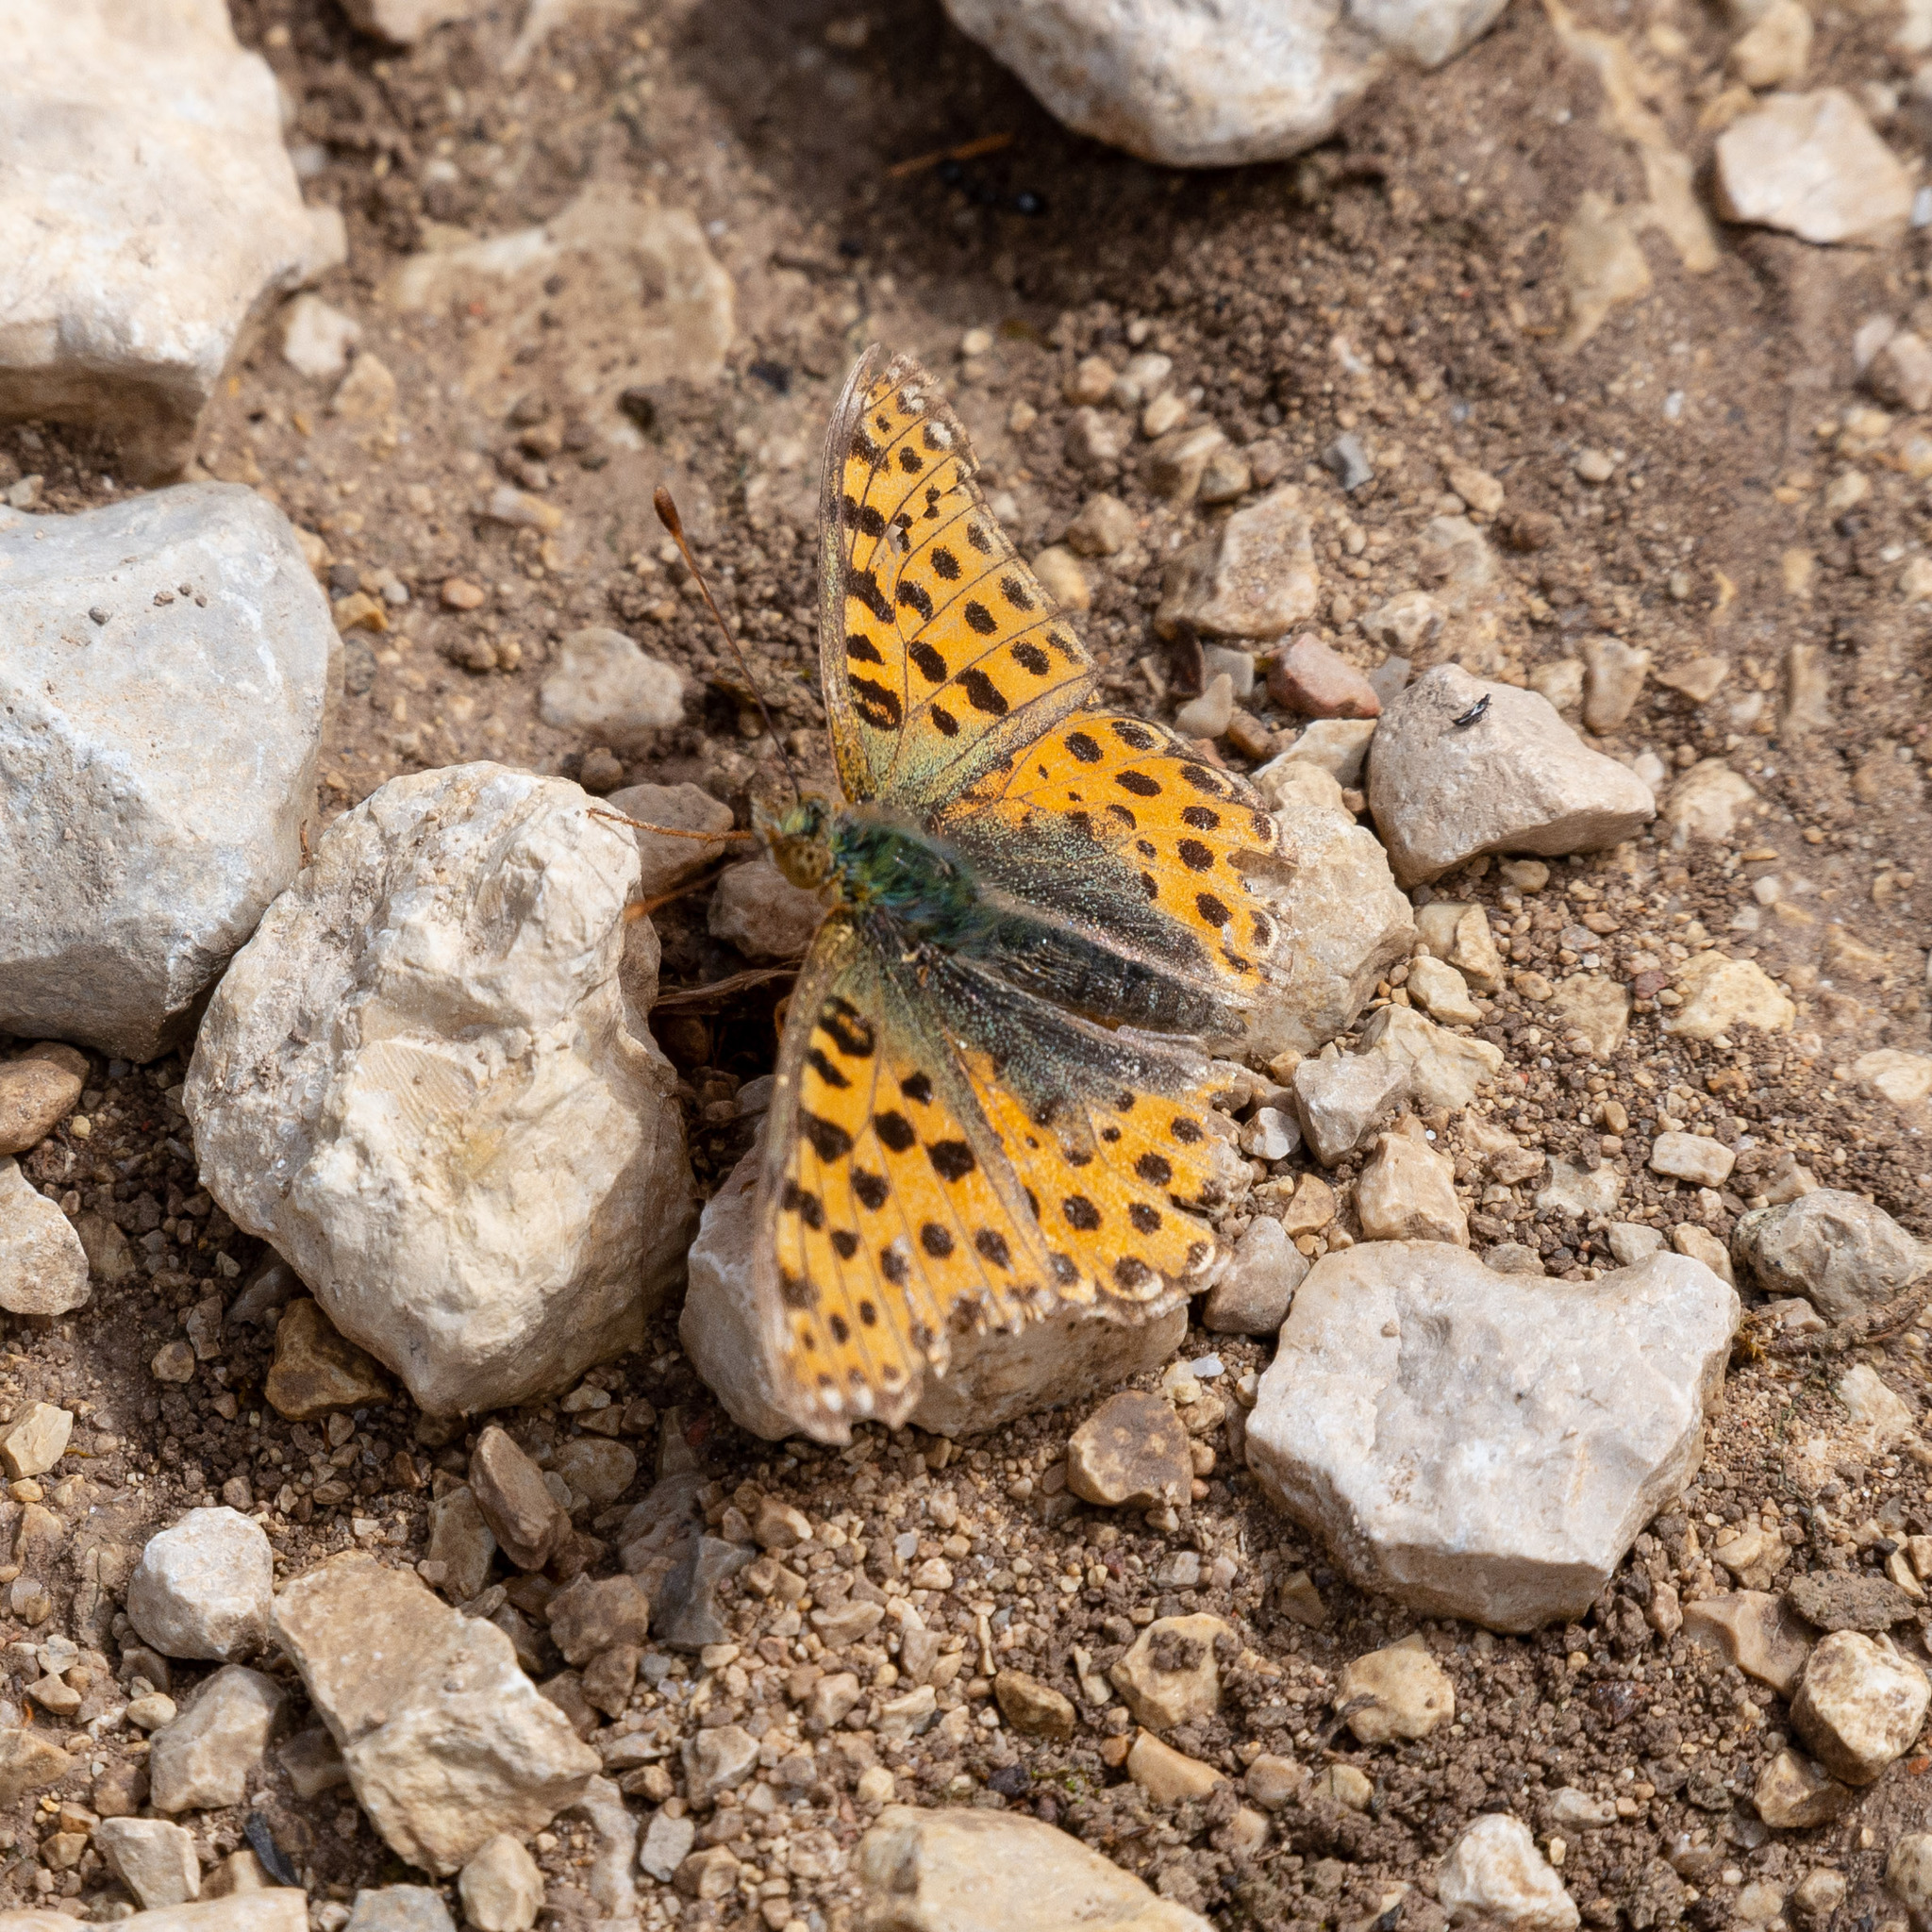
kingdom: Animalia
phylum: Arthropoda
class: Insecta
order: Lepidoptera
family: Nymphalidae
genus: Issoria
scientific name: Issoria lathonia
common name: Queen of spain fritillary
